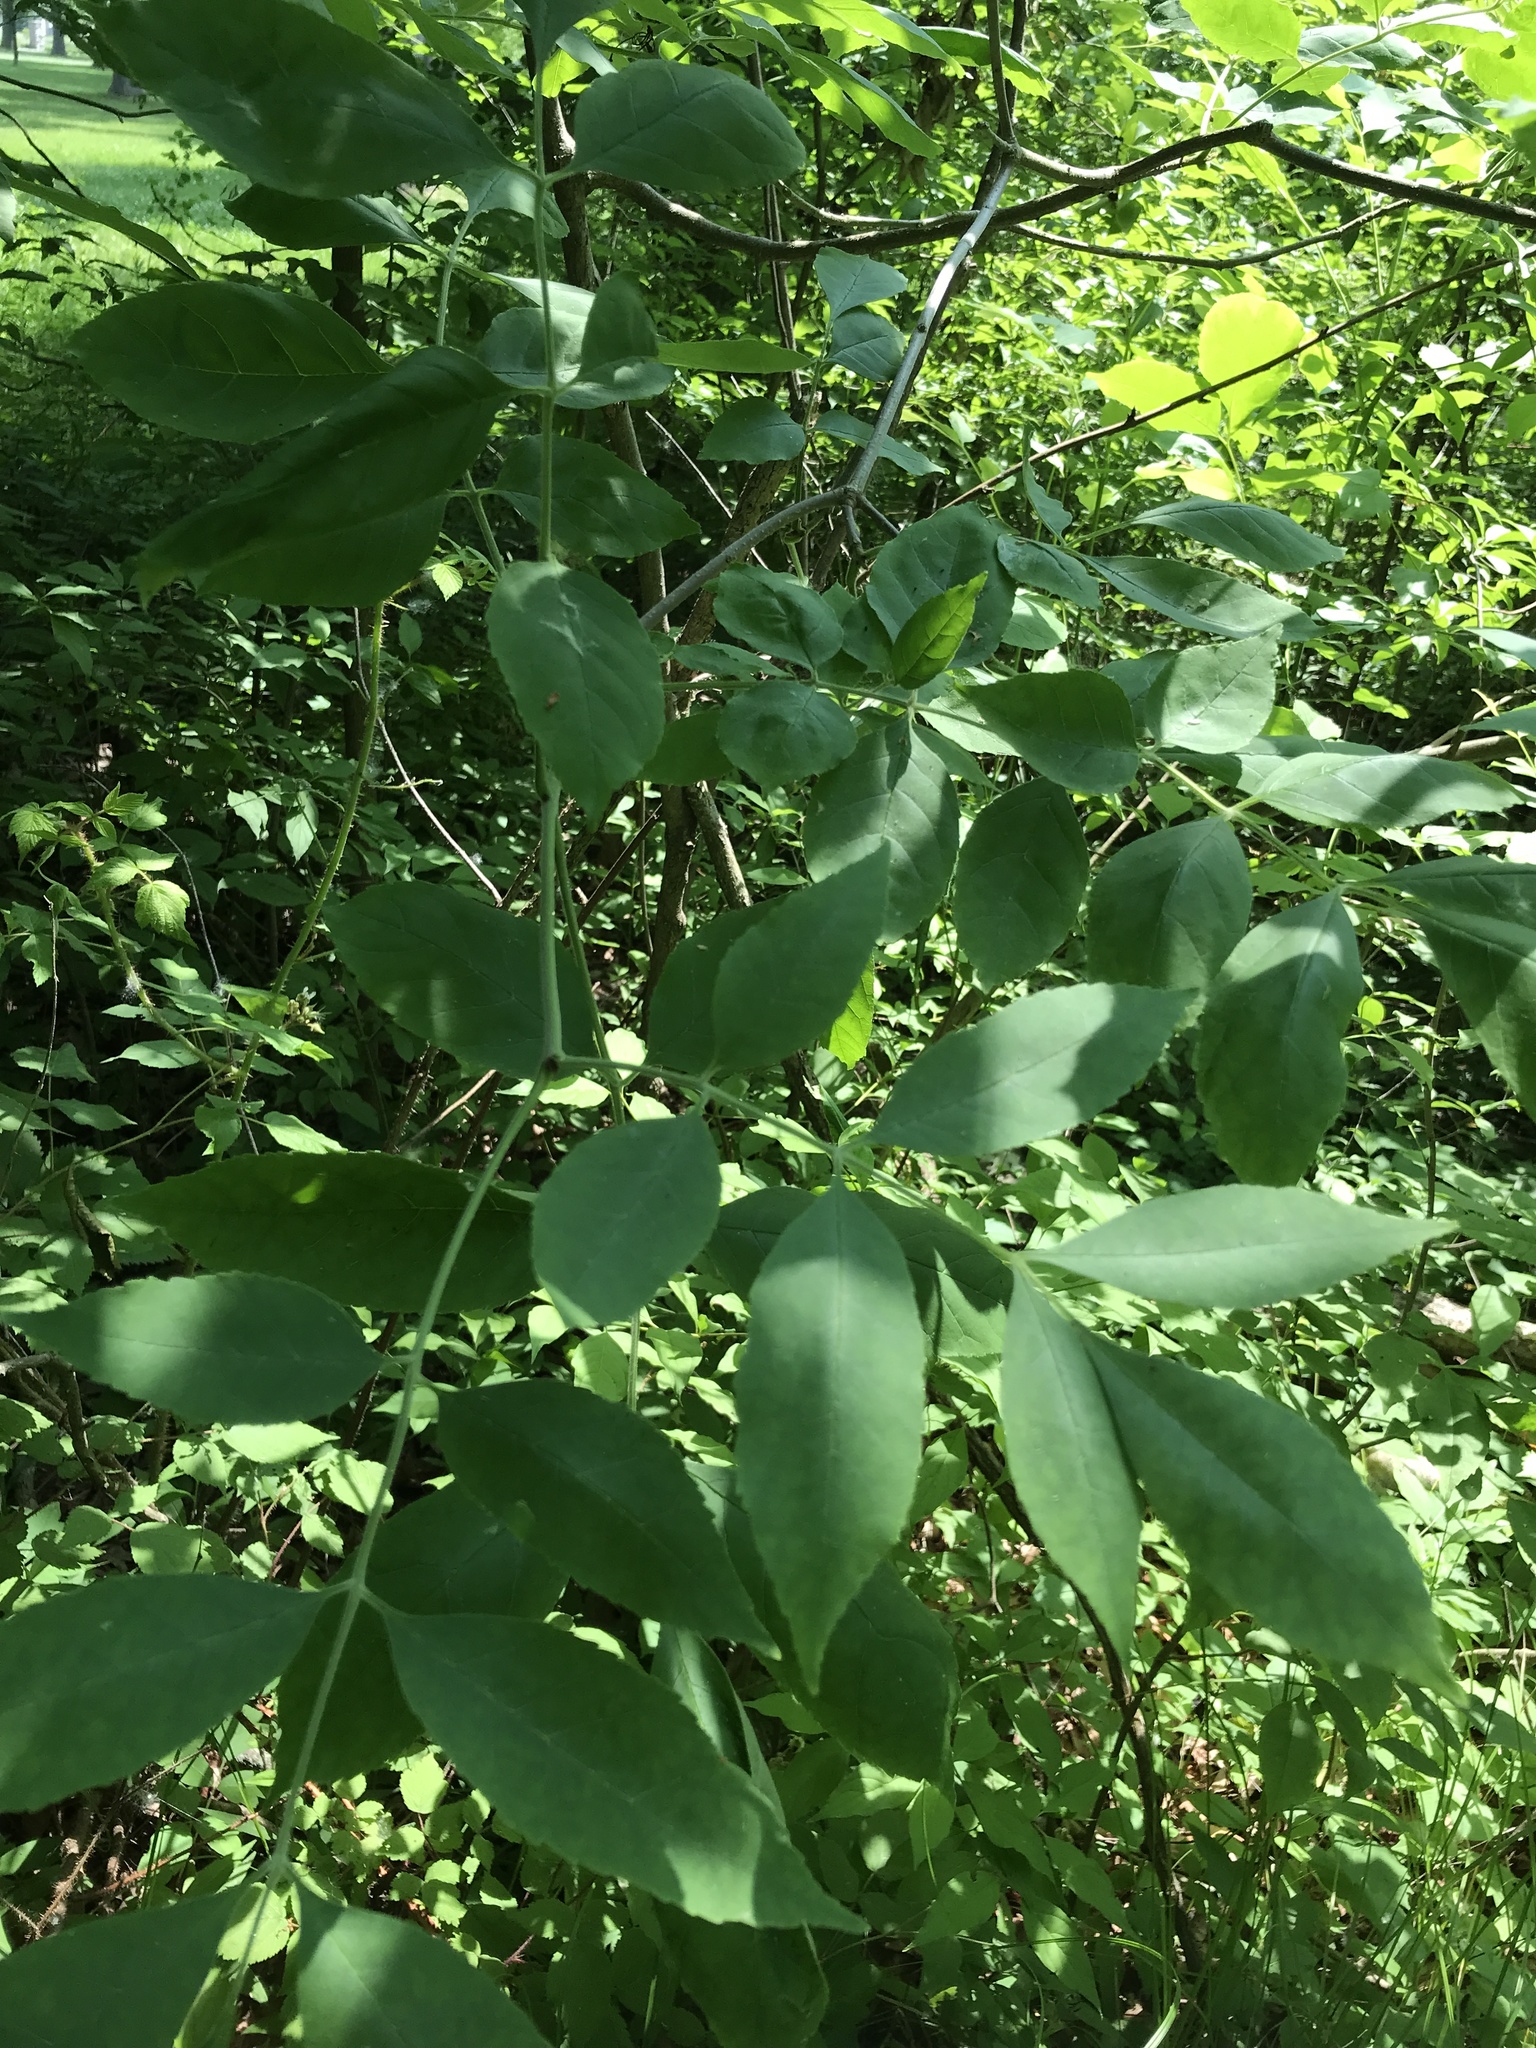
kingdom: Plantae
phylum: Tracheophyta
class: Magnoliopsida
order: Lamiales
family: Oleaceae
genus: Fraxinus
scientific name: Fraxinus pennsylvanica
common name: Green ash
